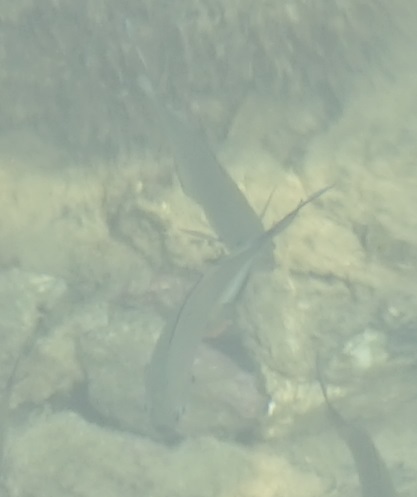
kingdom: Animalia
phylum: Chordata
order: Perciformes
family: Sparidae
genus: Acanthopagrus
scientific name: Acanthopagrus australis
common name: Surf bream
